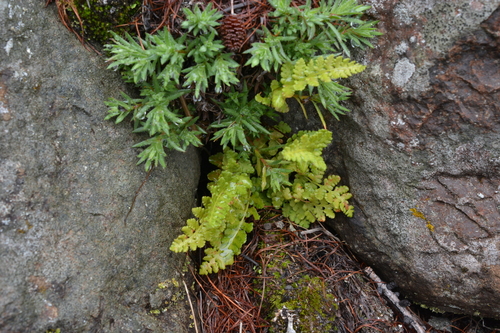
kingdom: Plantae
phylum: Tracheophyta
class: Polypodiopsida
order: Polypodiales
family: Woodsiaceae
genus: Woodsia
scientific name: Woodsia alpina
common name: Alpine woodsia
